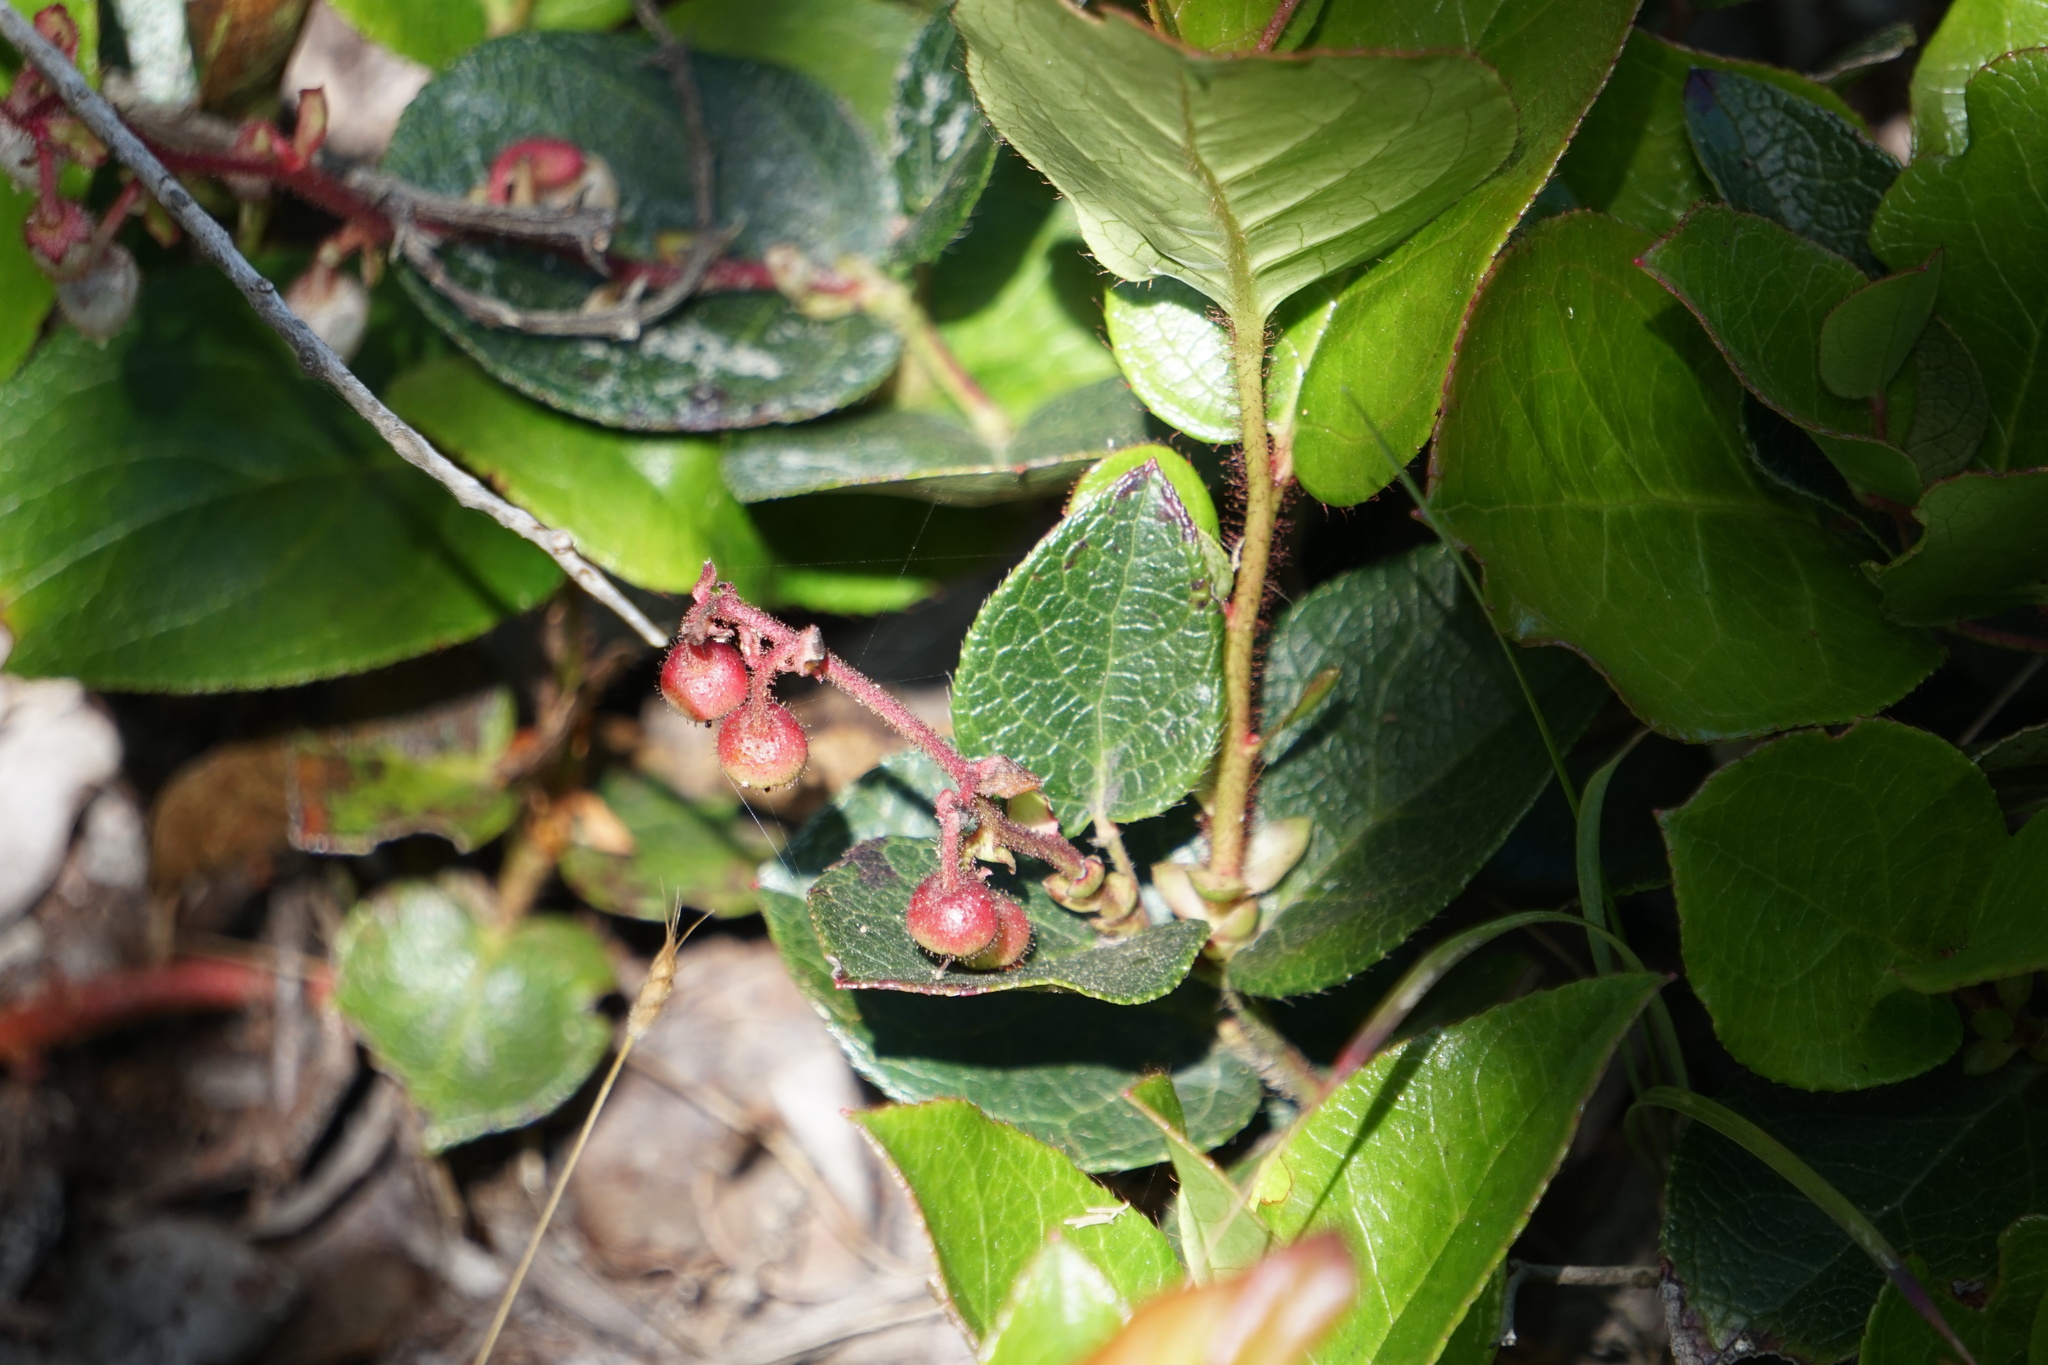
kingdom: Plantae
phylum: Tracheophyta
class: Magnoliopsida
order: Ericales
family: Ericaceae
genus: Gaultheria
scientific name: Gaultheria shallon
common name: Shallon
